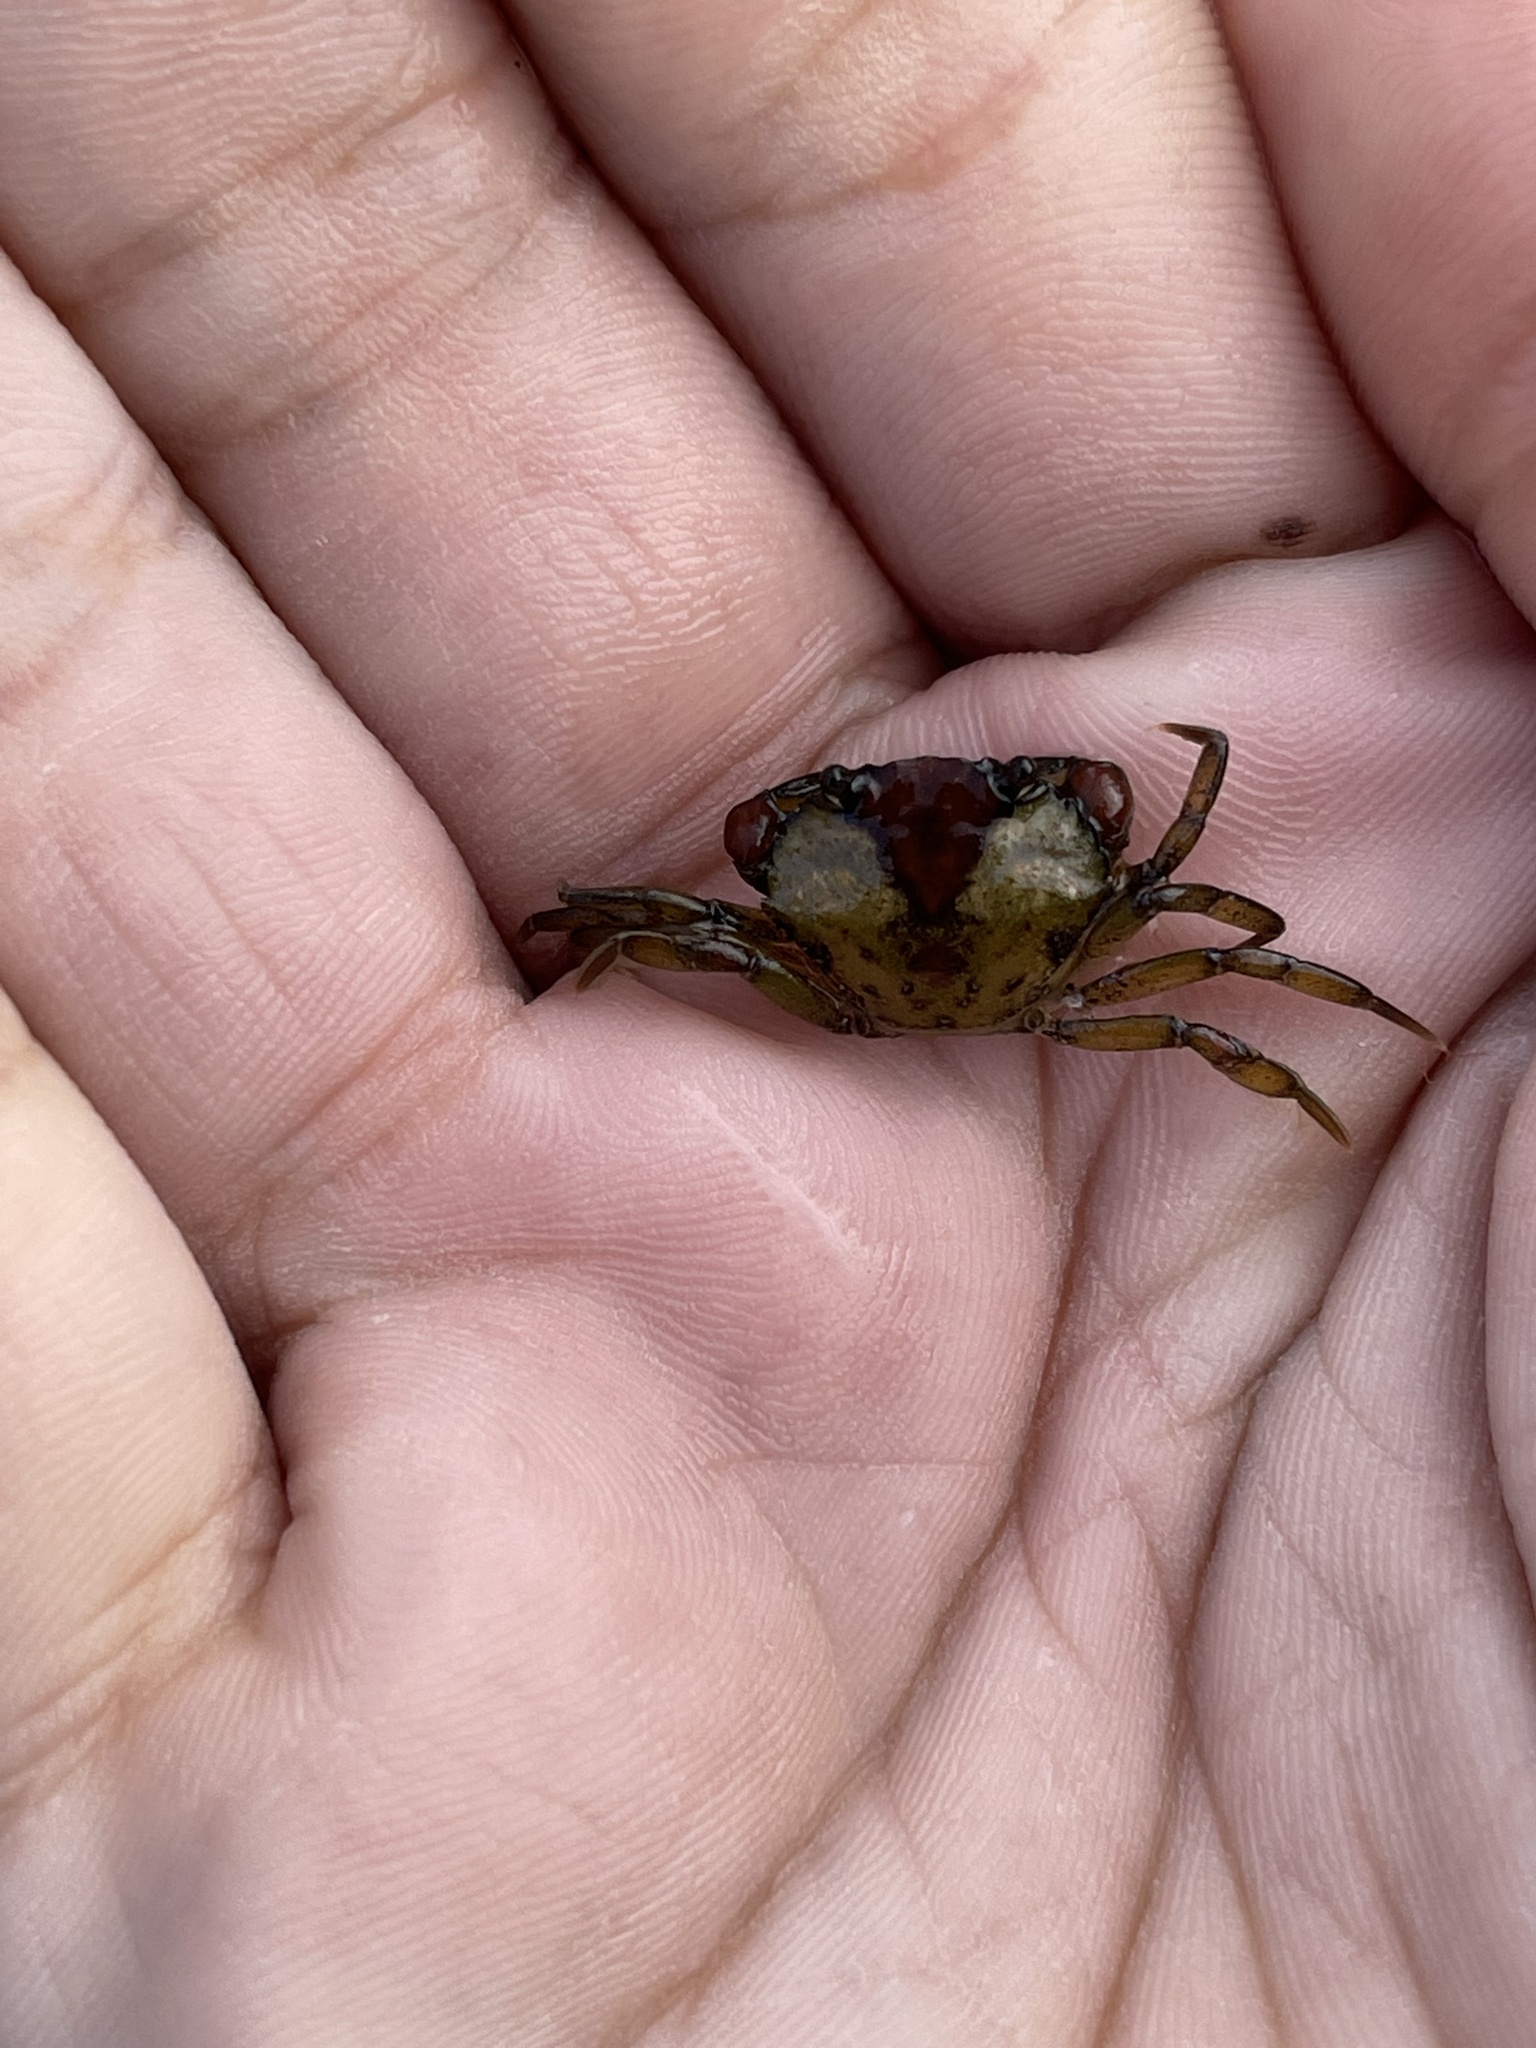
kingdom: Animalia
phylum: Arthropoda
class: Malacostraca
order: Decapoda
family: Carcinidae
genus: Carcinus
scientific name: Carcinus maenas
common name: European green crab
